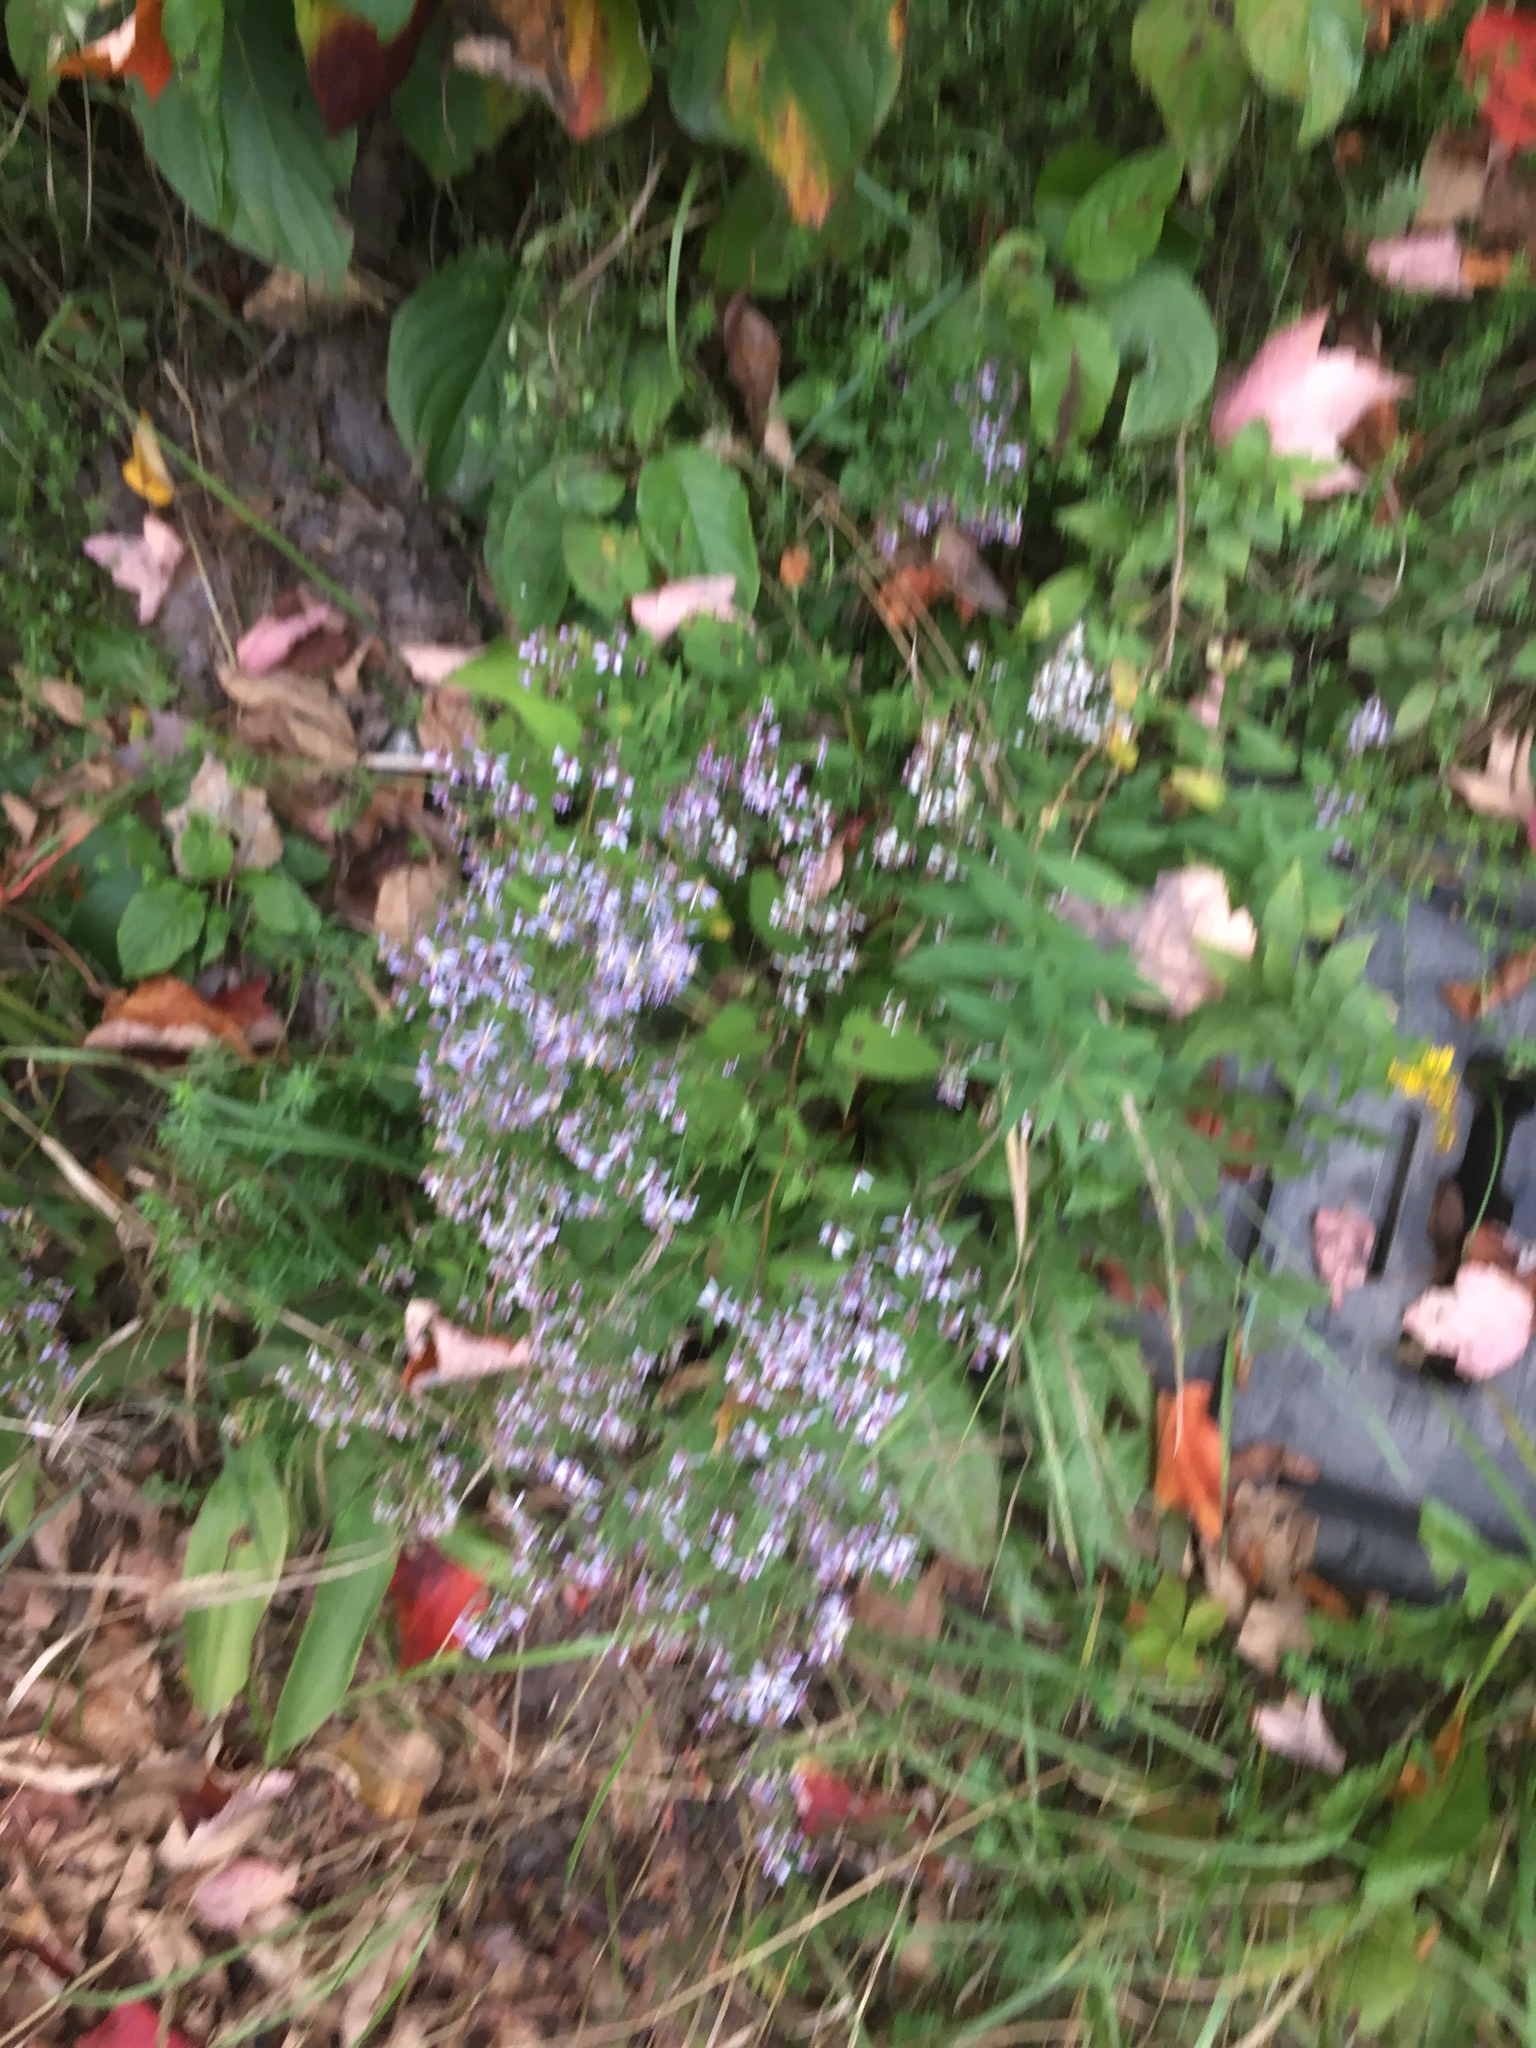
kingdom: Plantae
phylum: Tracheophyta
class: Magnoliopsida
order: Asterales
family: Asteraceae
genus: Symphyotrichum
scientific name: Symphyotrichum cordifolium
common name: Beeweed
